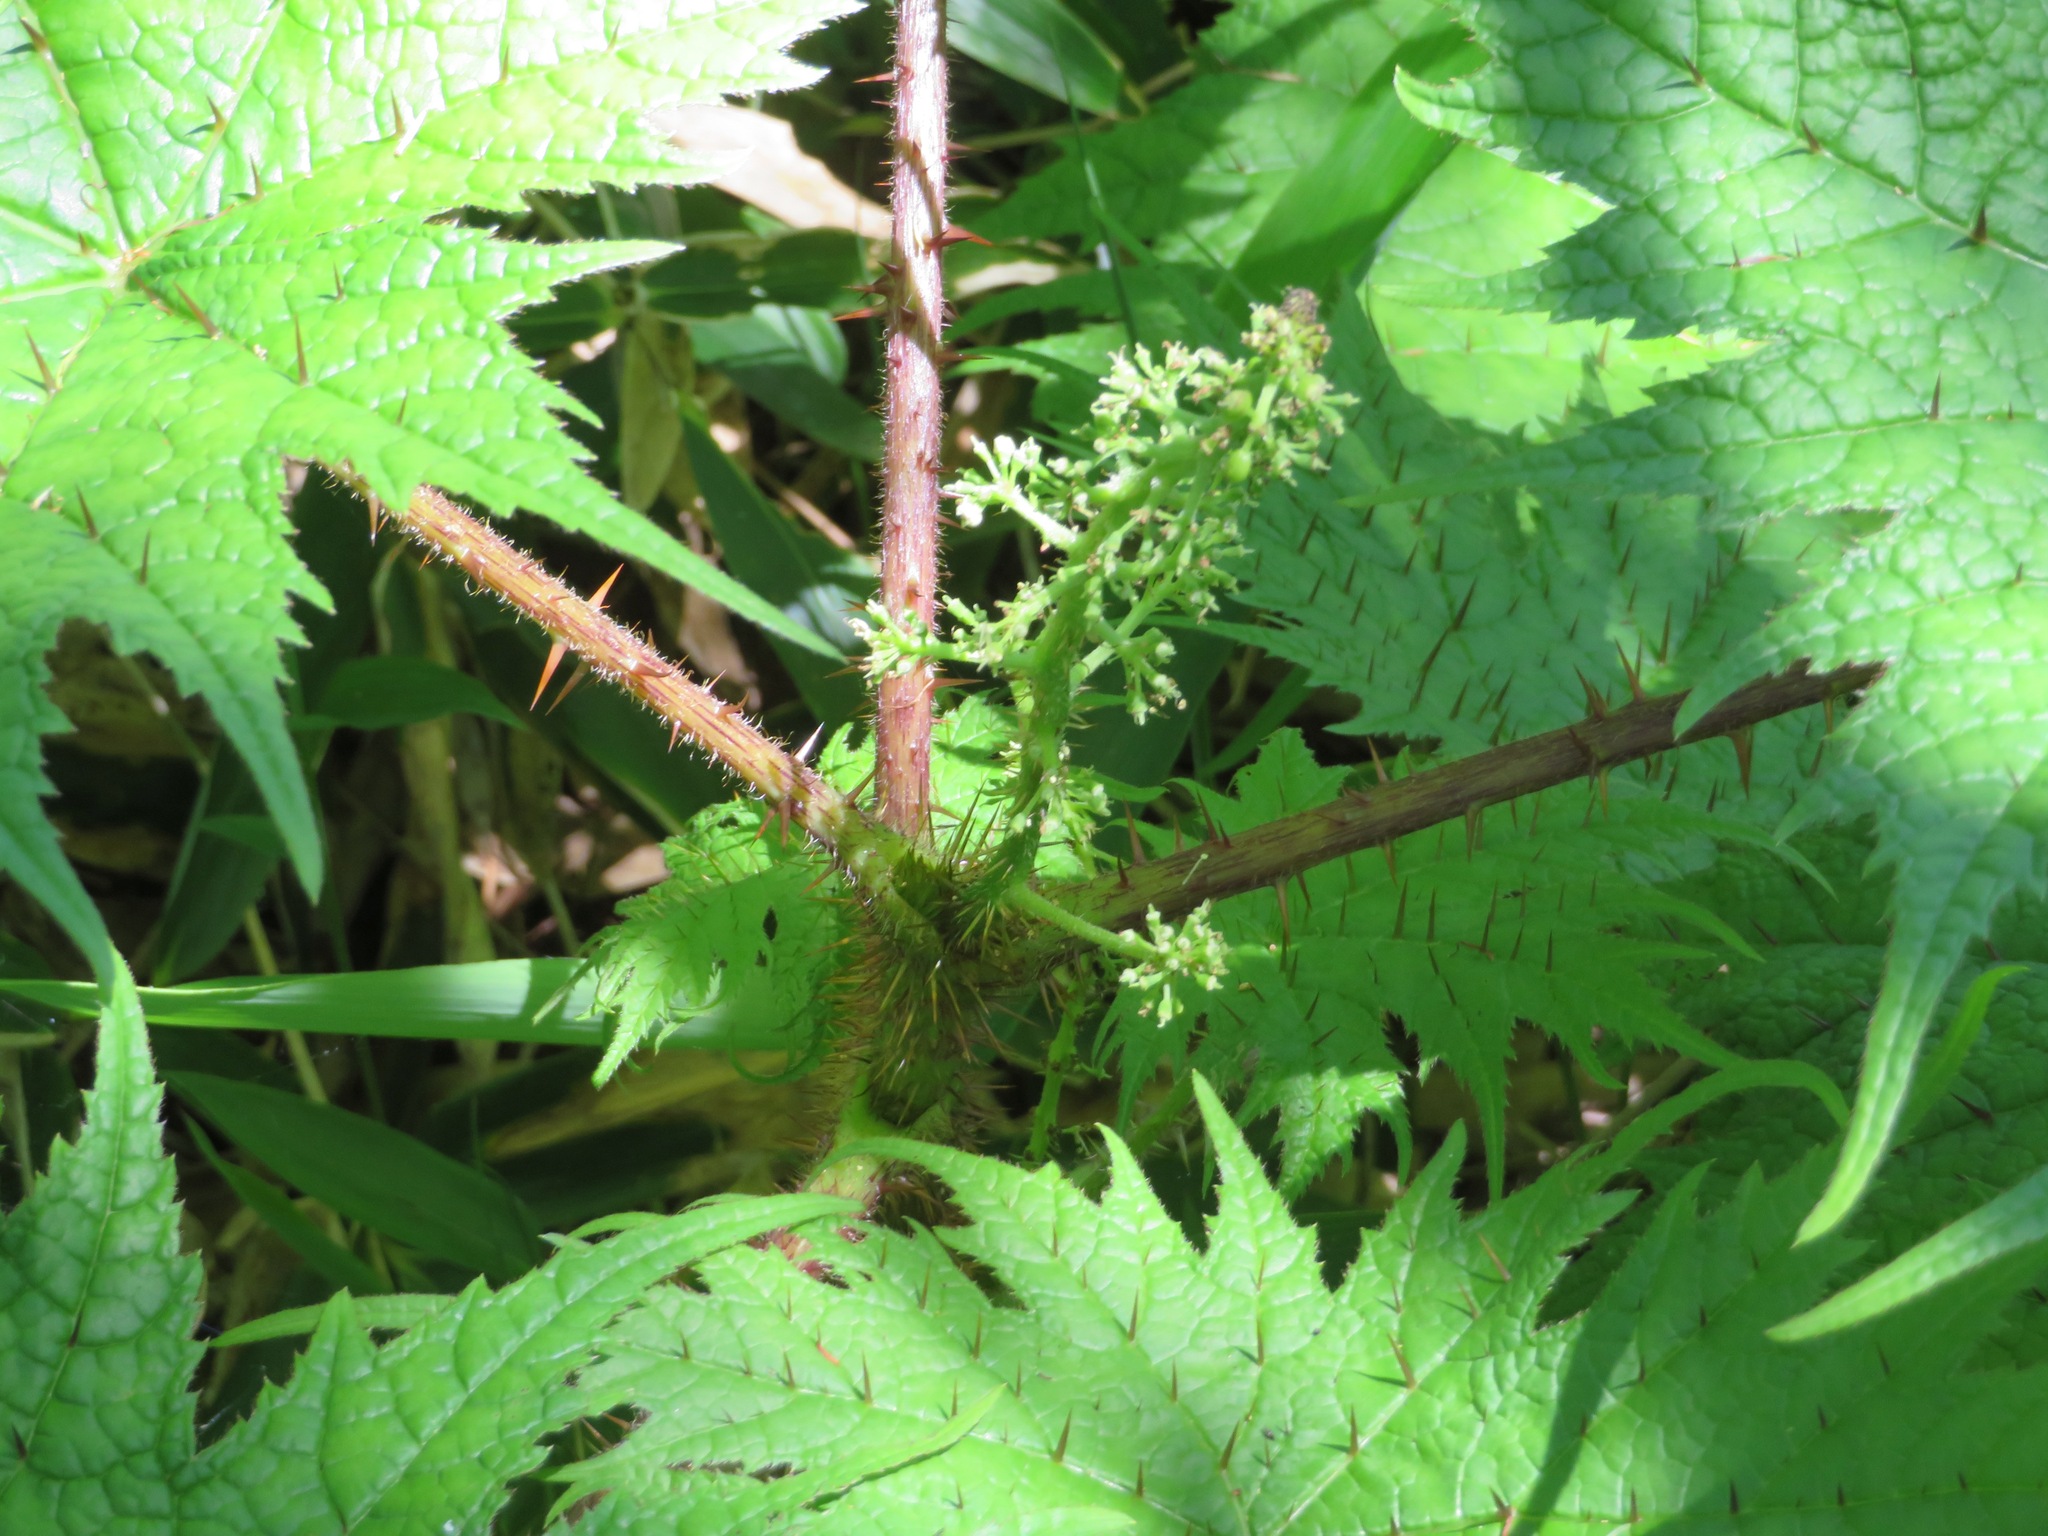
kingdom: Plantae
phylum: Tracheophyta
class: Magnoliopsida
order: Apiales
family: Araliaceae
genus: Oplopanax
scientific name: Oplopanax japonicus
